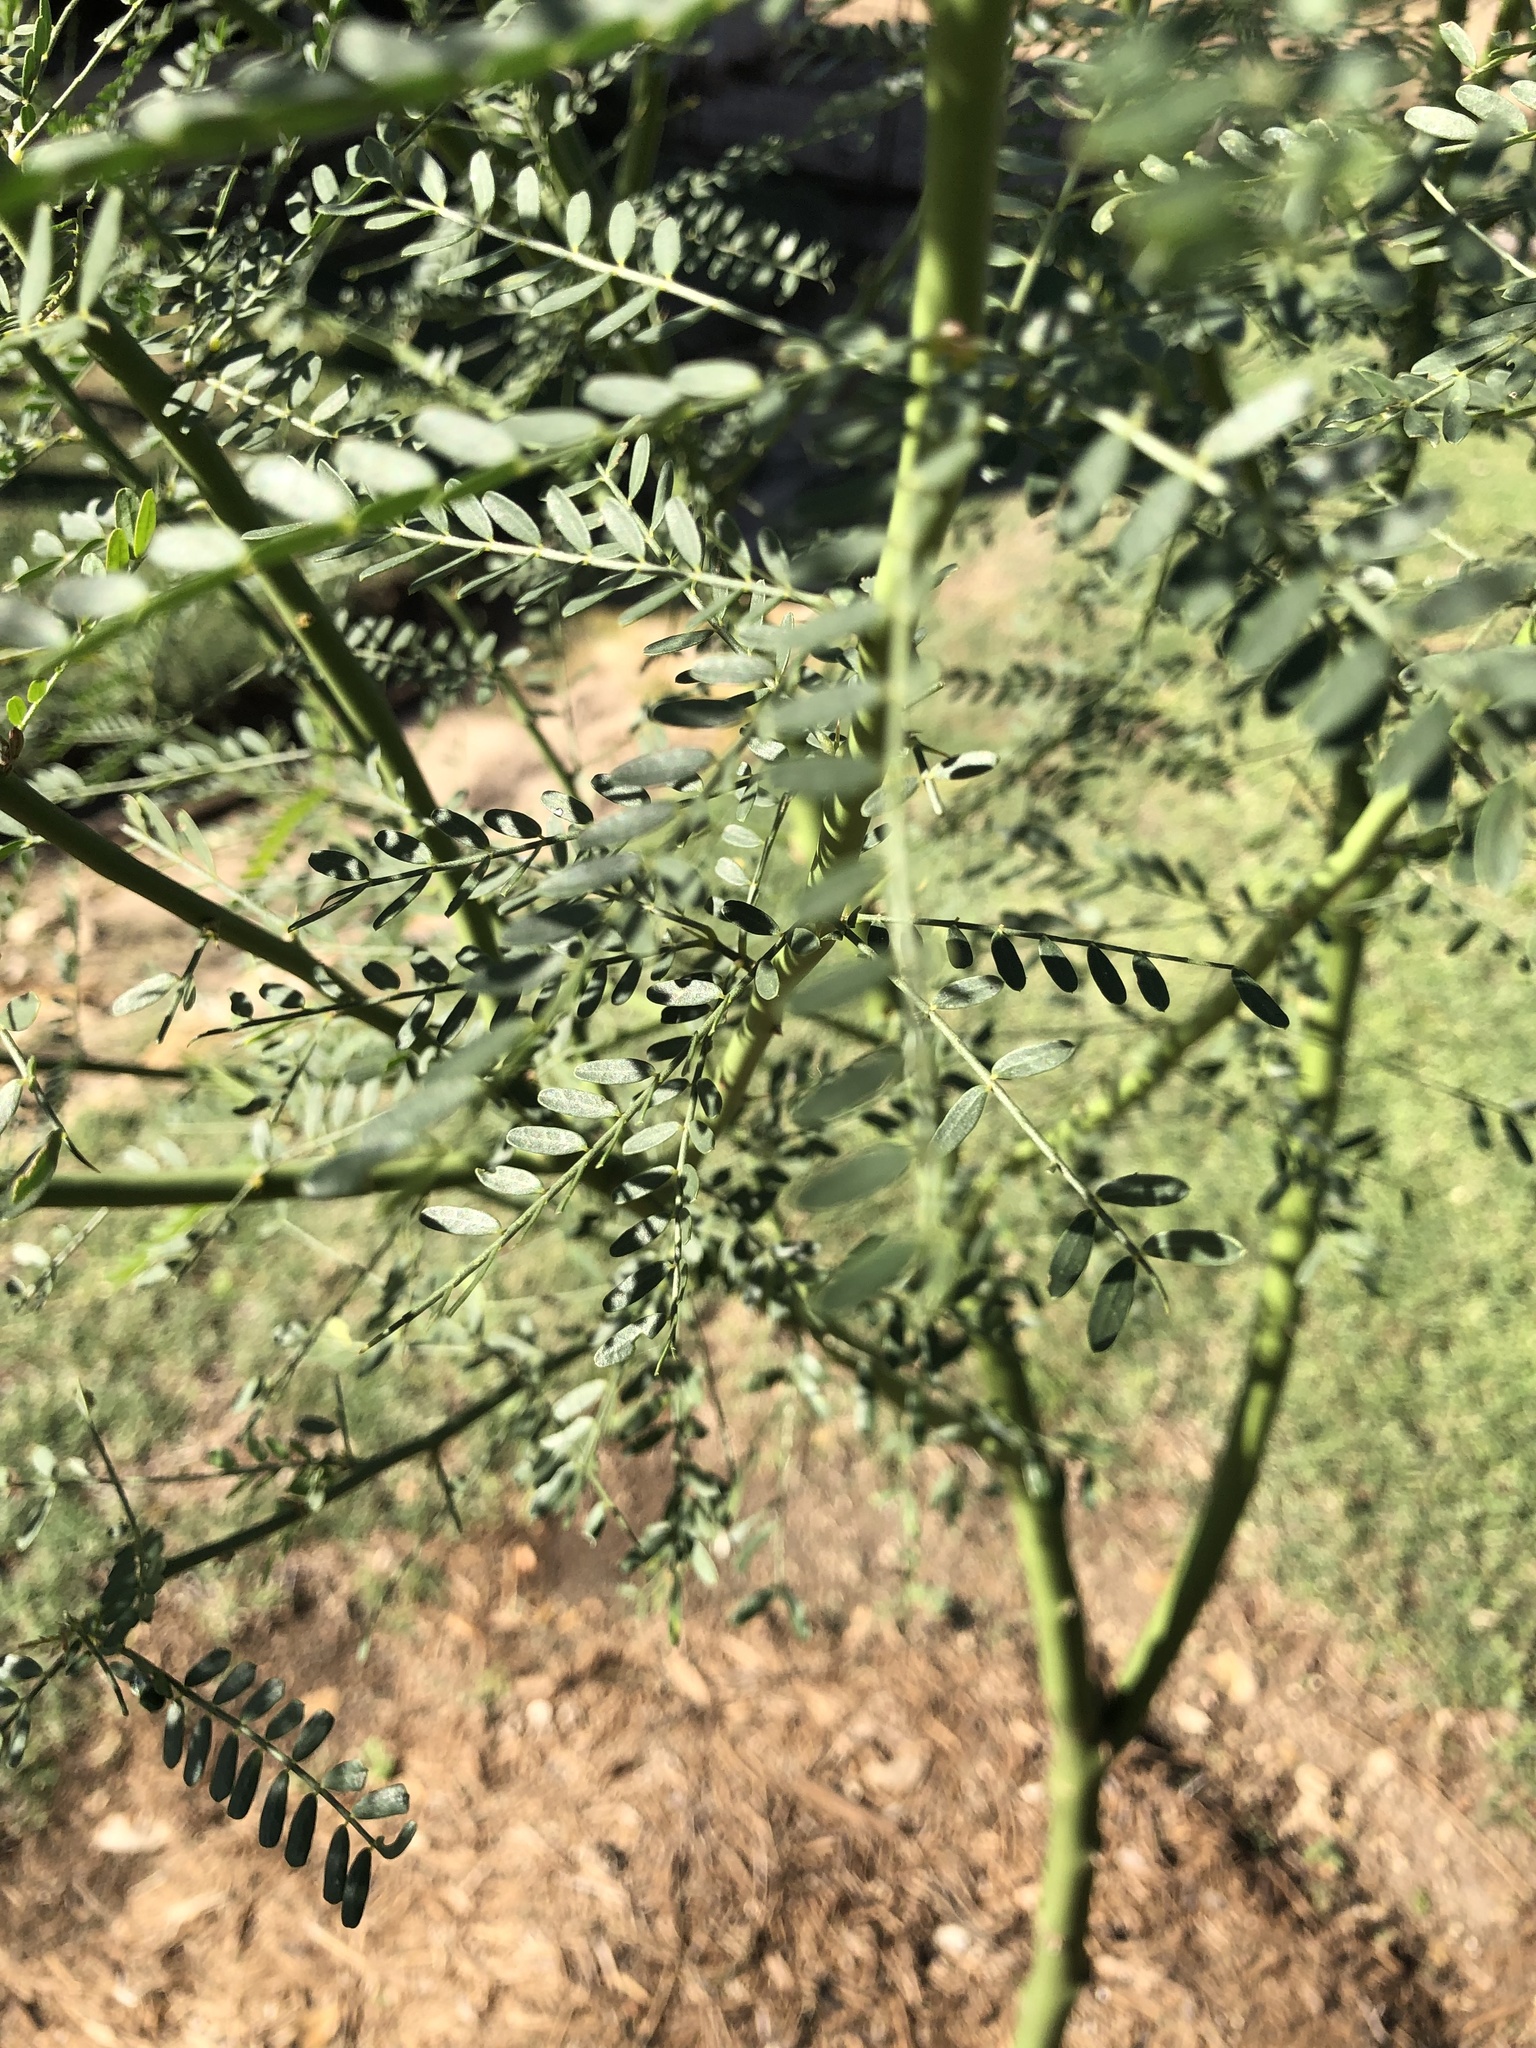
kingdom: Plantae
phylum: Tracheophyta
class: Magnoliopsida
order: Fabales
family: Fabaceae
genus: Parkinsonia
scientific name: Parkinsonia aculeata
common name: Jerusalem thorn
